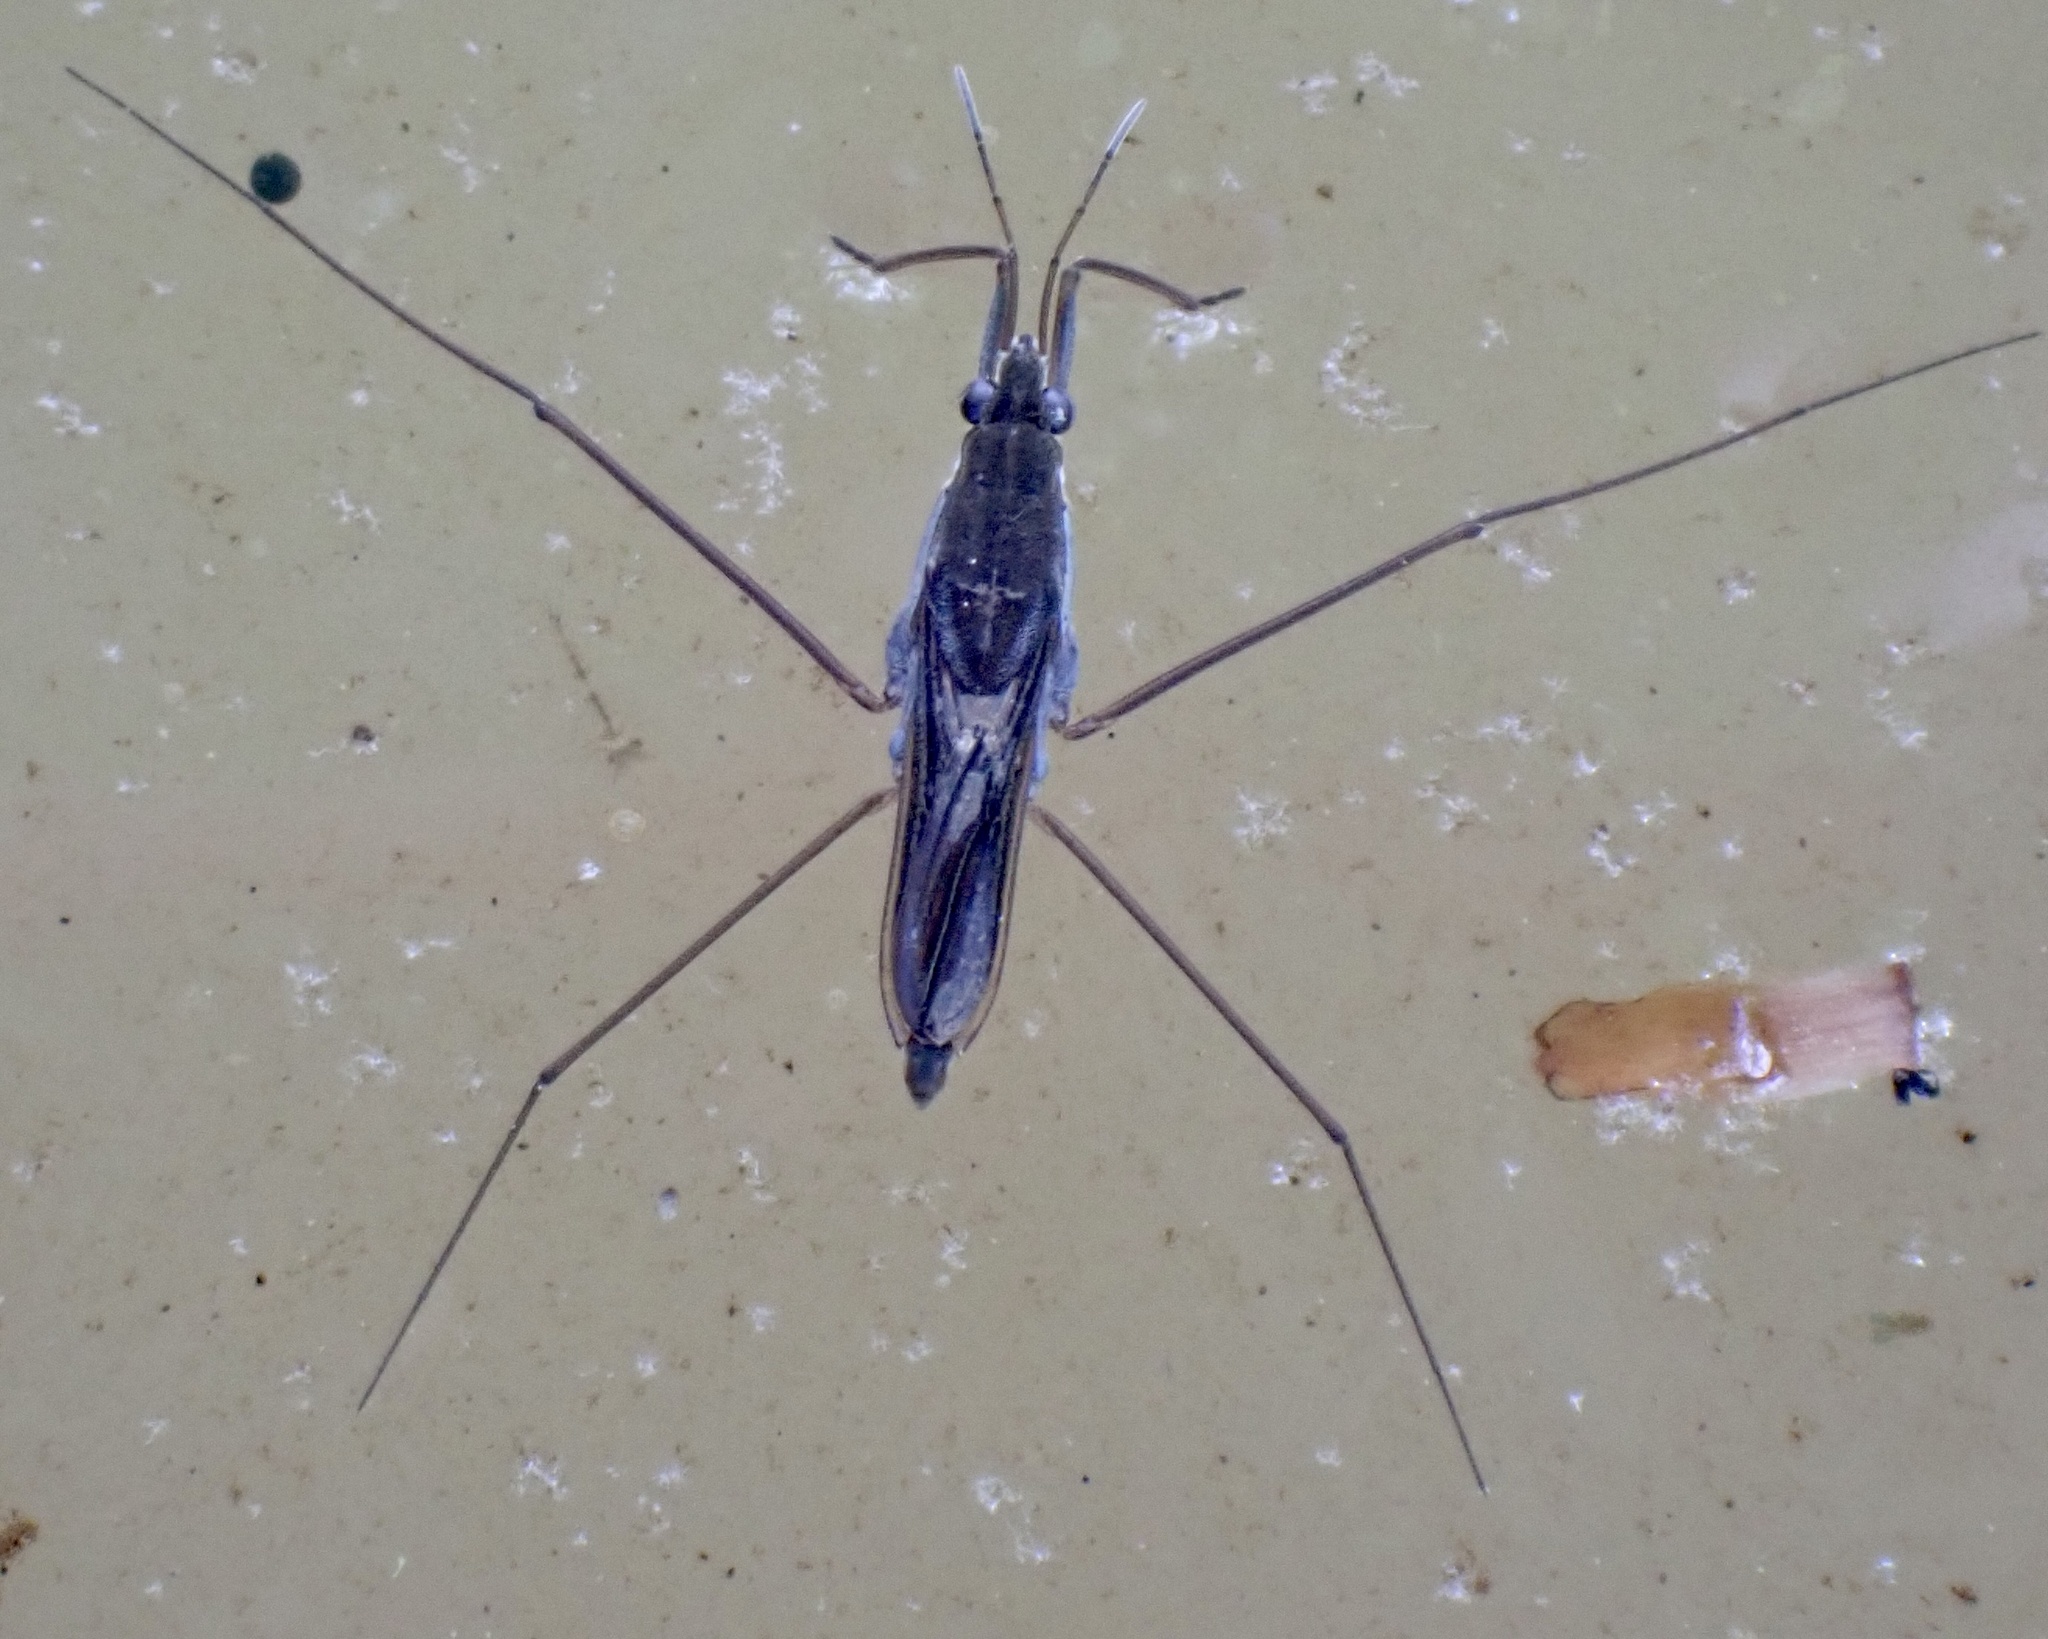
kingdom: Animalia
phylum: Arthropoda
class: Insecta
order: Hemiptera
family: Gerridae
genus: Gerris
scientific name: Gerris
